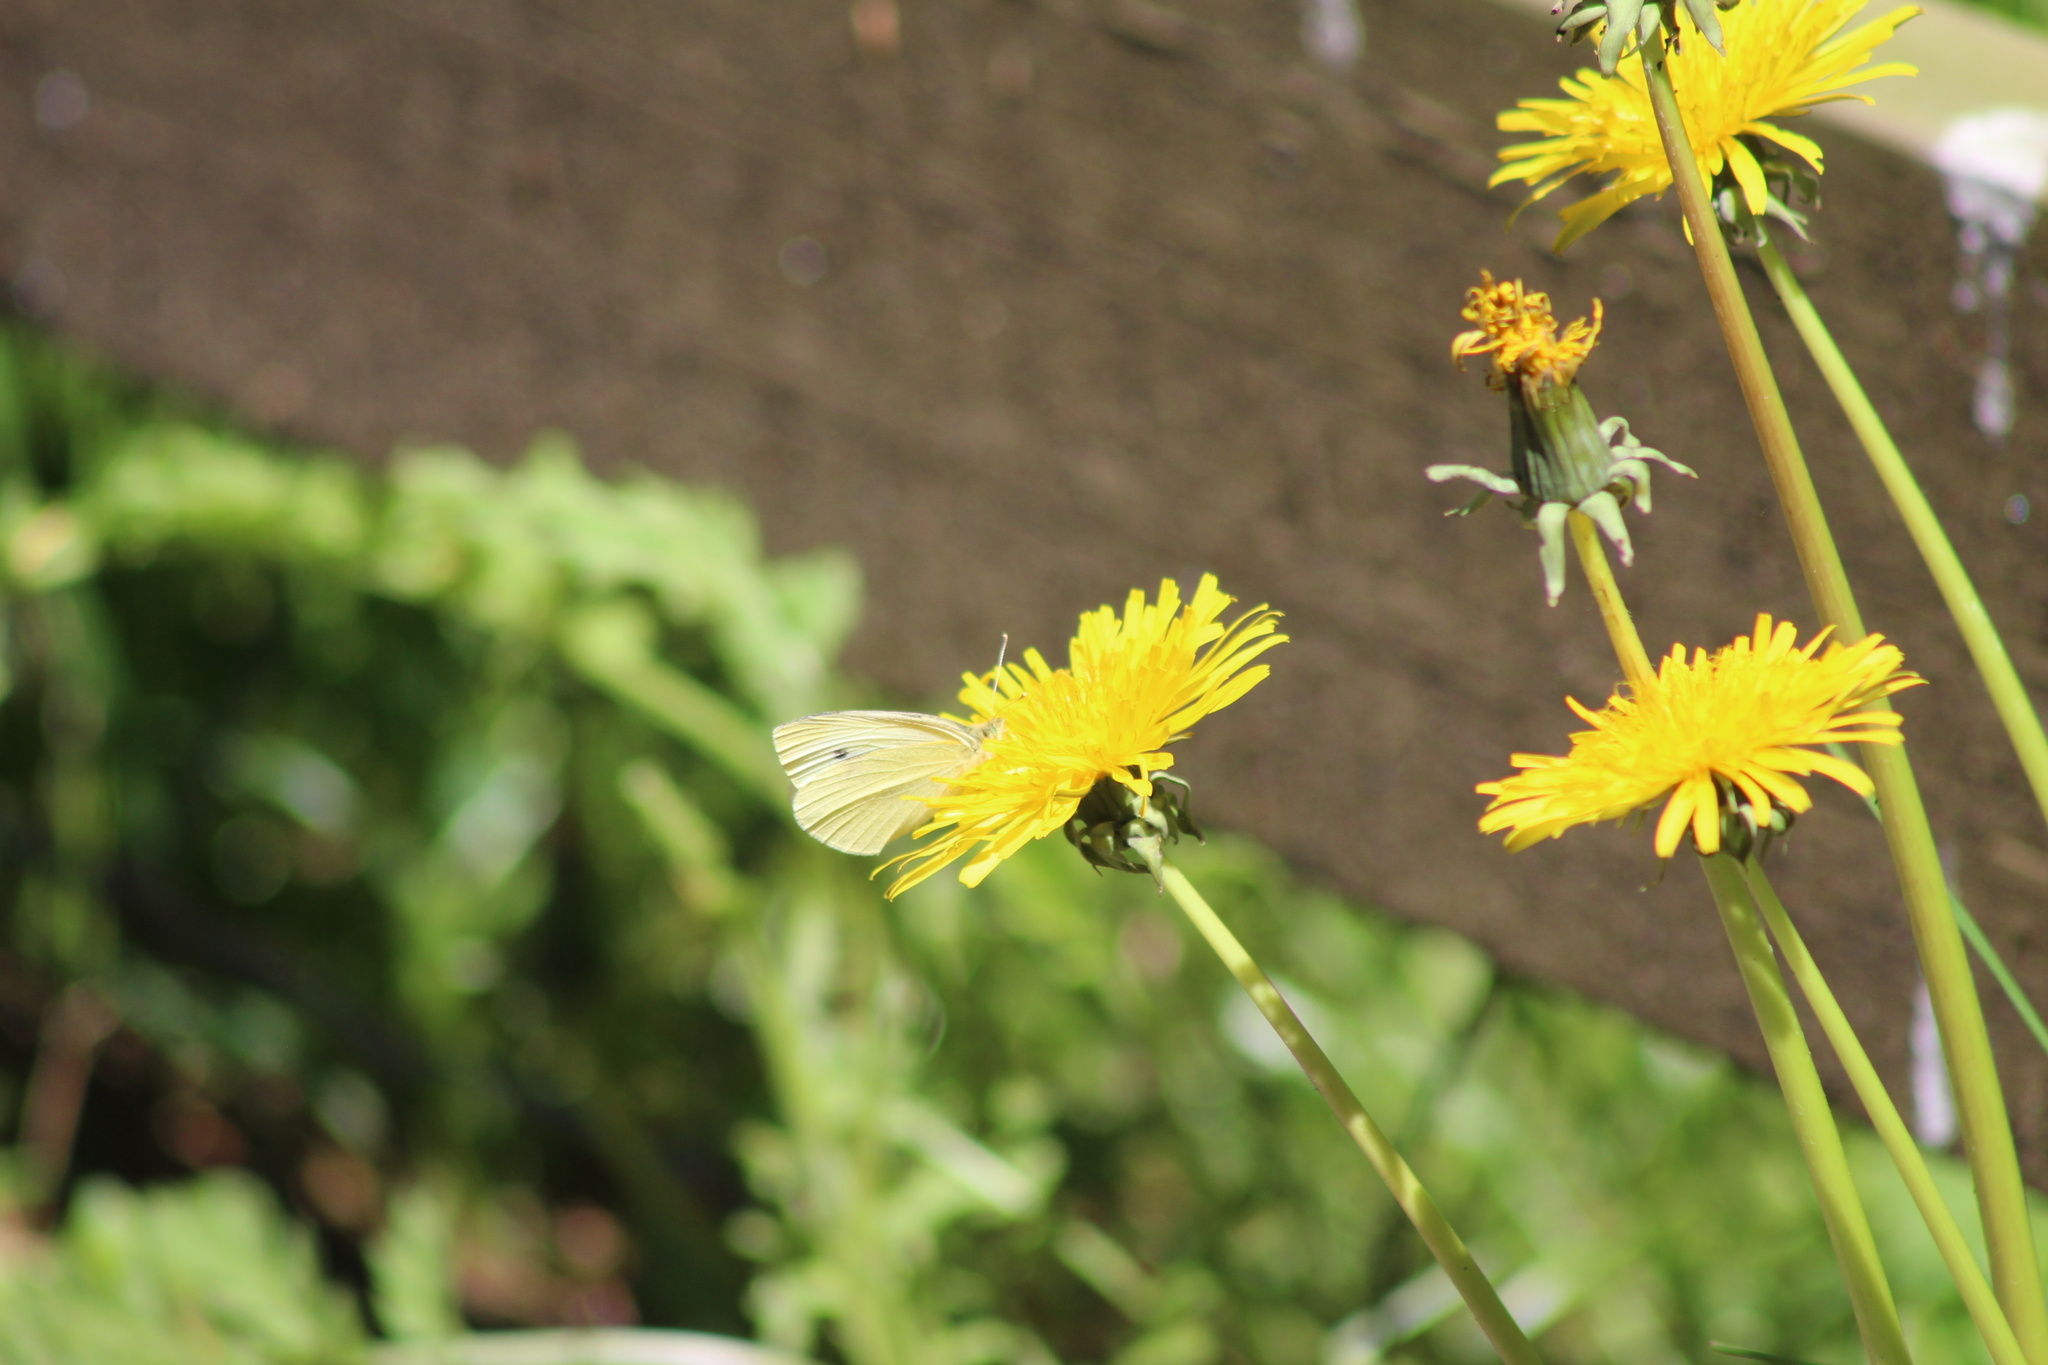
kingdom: Animalia
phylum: Arthropoda
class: Insecta
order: Lepidoptera
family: Pieridae
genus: Pieris
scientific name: Pieris rapae
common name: Small white
